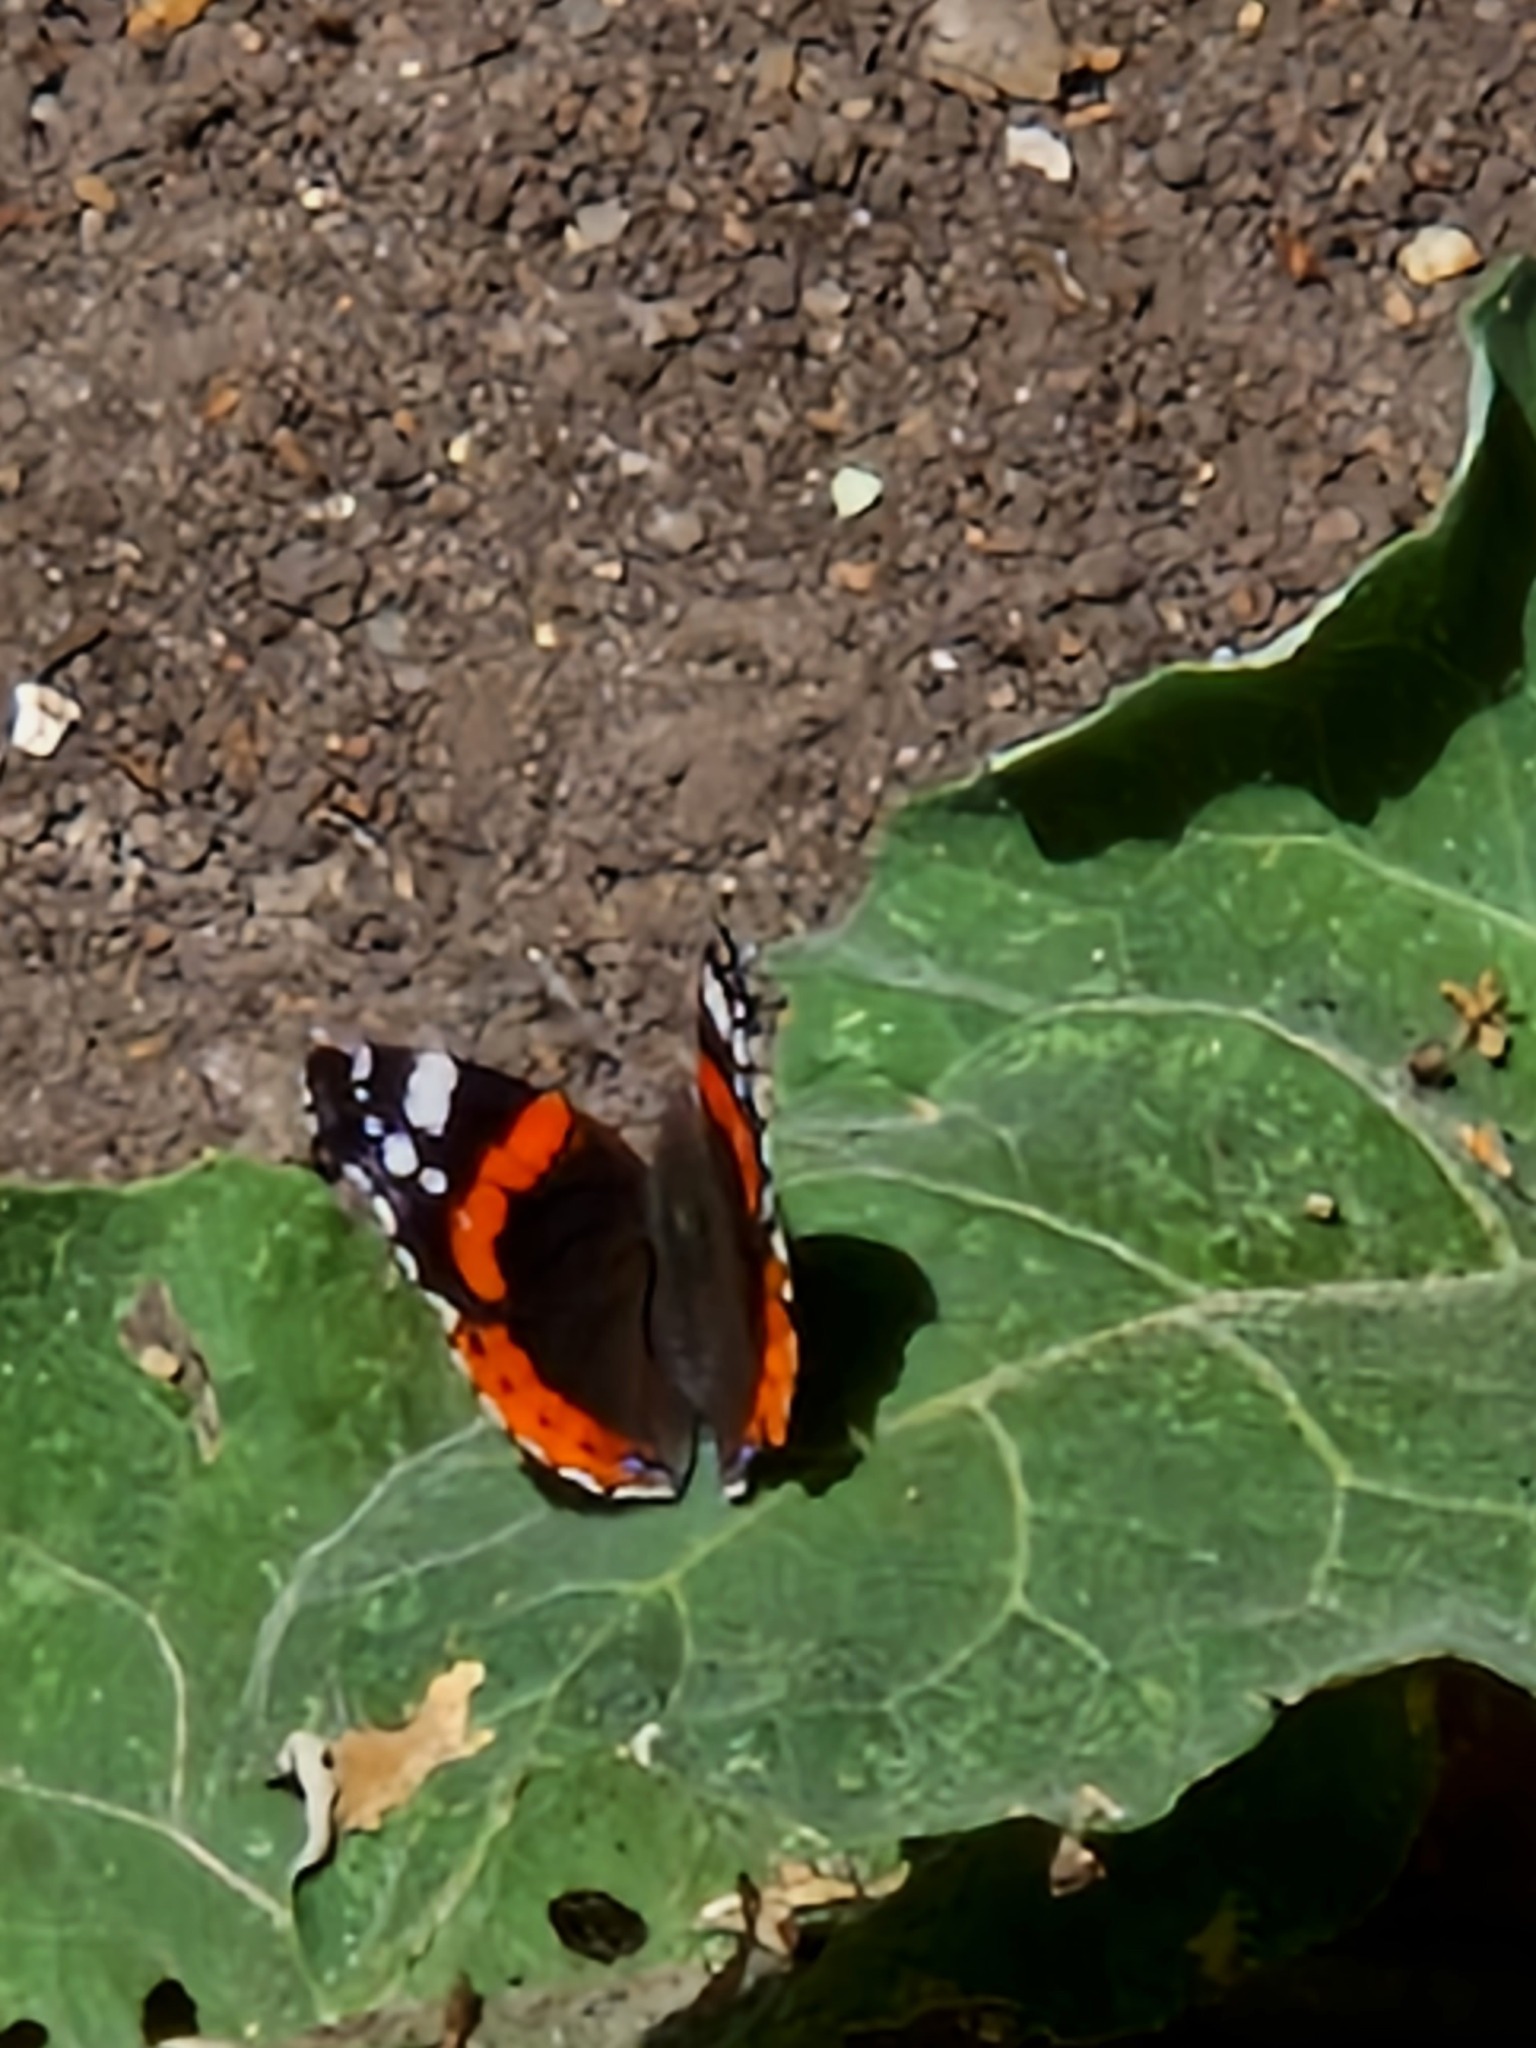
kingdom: Animalia
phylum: Arthropoda
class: Insecta
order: Lepidoptera
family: Nymphalidae
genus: Vanessa
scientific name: Vanessa atalanta
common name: Red admiral
